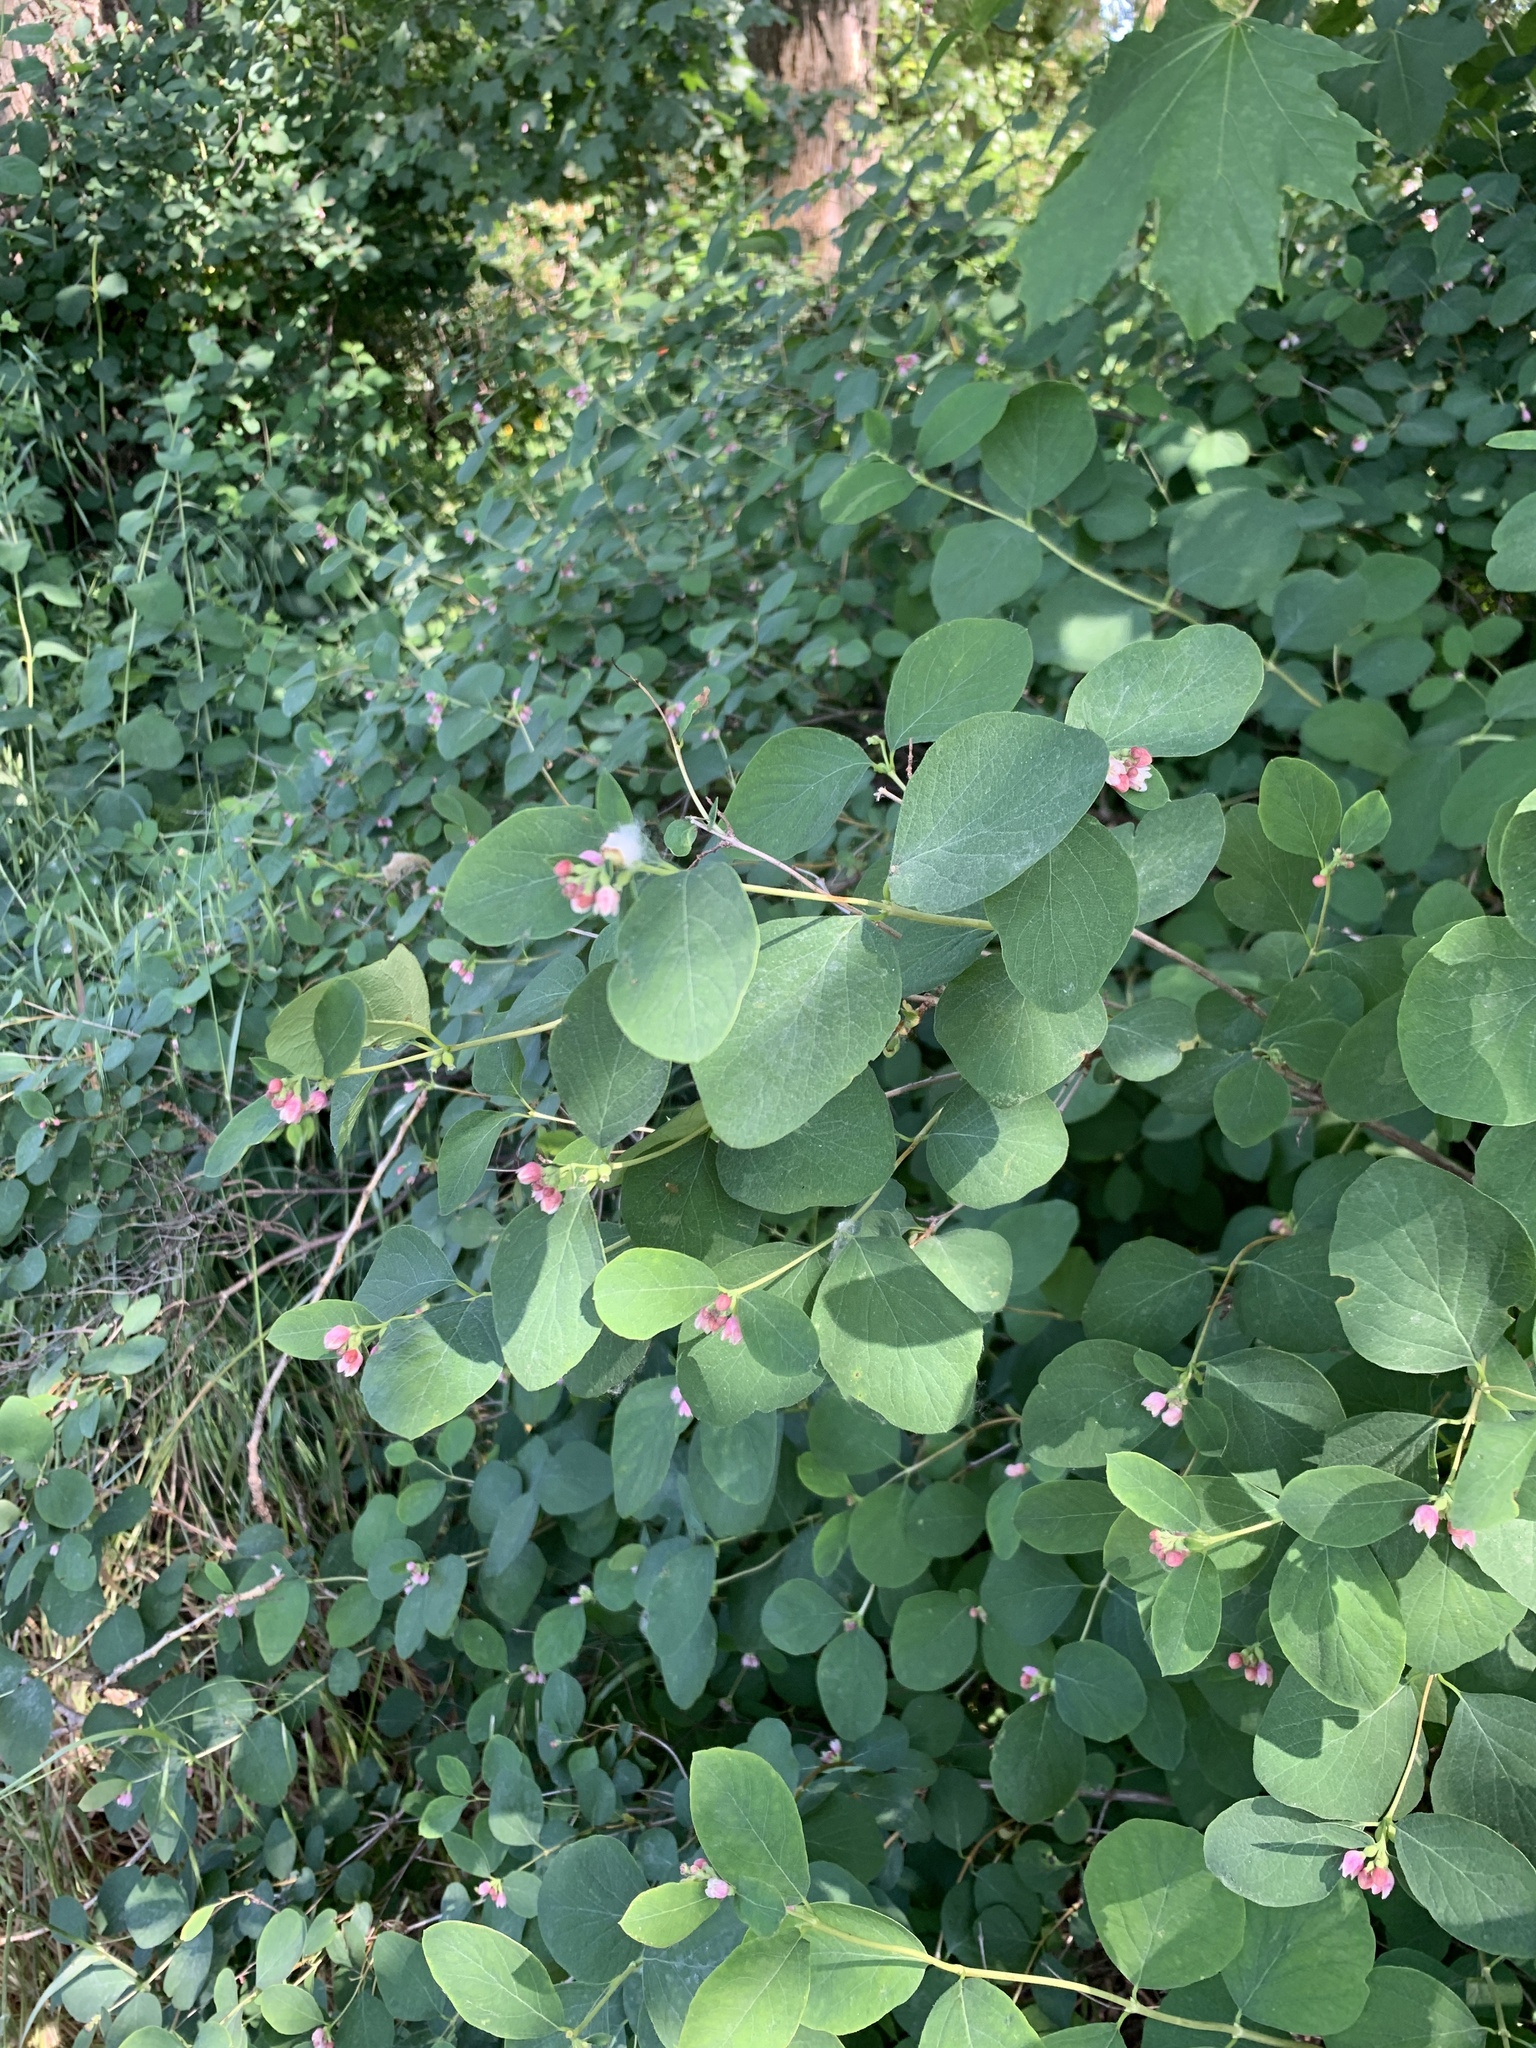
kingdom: Plantae
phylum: Tracheophyta
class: Magnoliopsida
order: Dipsacales
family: Caprifoliaceae
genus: Symphoricarpos
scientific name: Symphoricarpos albus
